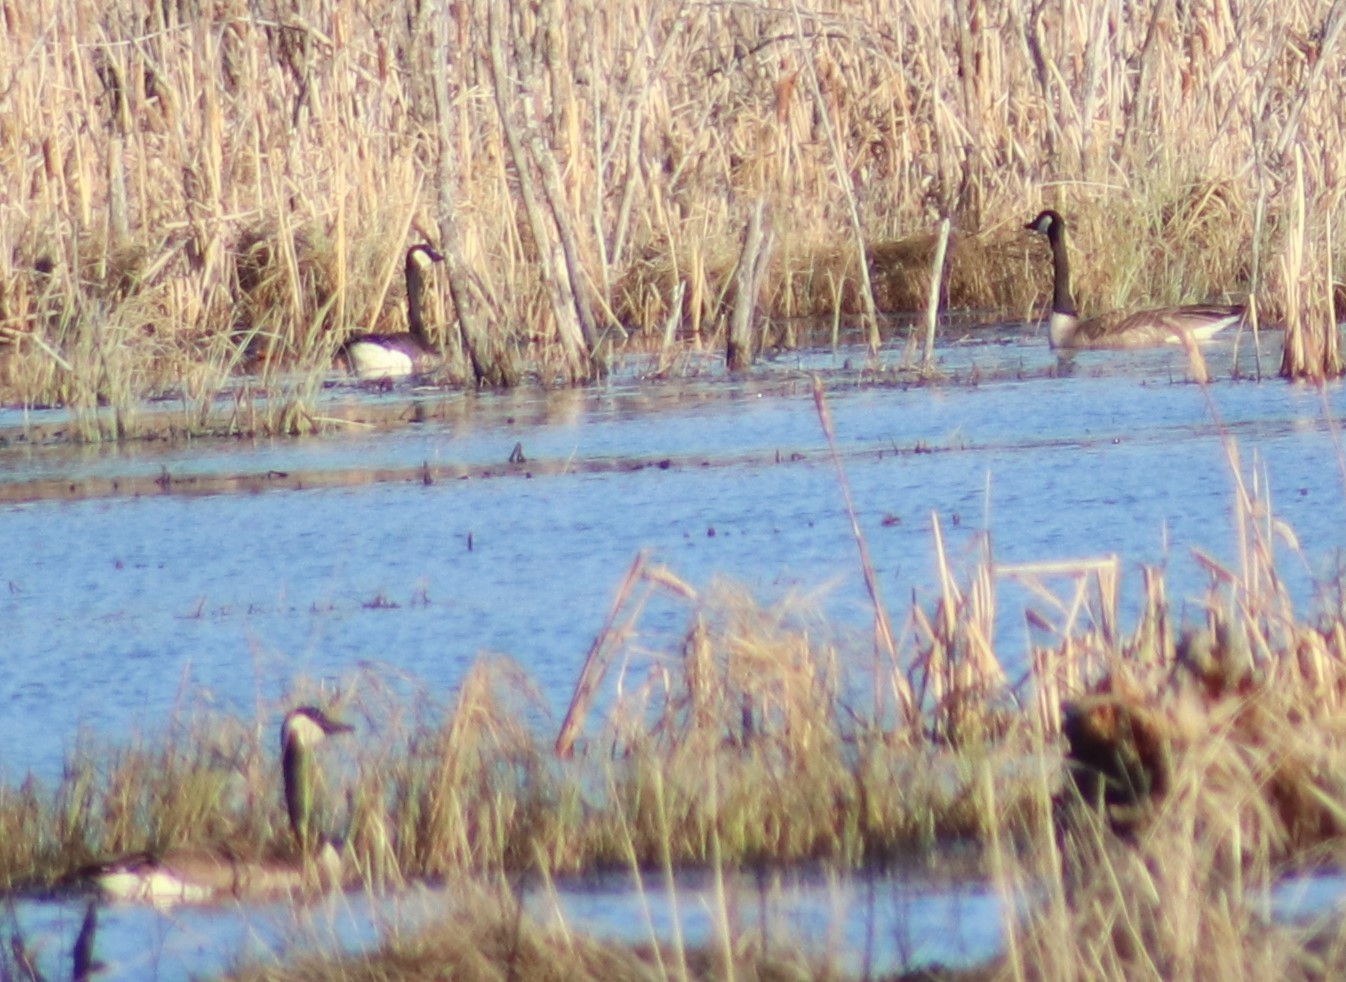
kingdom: Animalia
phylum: Chordata
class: Aves
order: Anseriformes
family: Anatidae
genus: Branta
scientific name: Branta canadensis
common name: Canada goose
